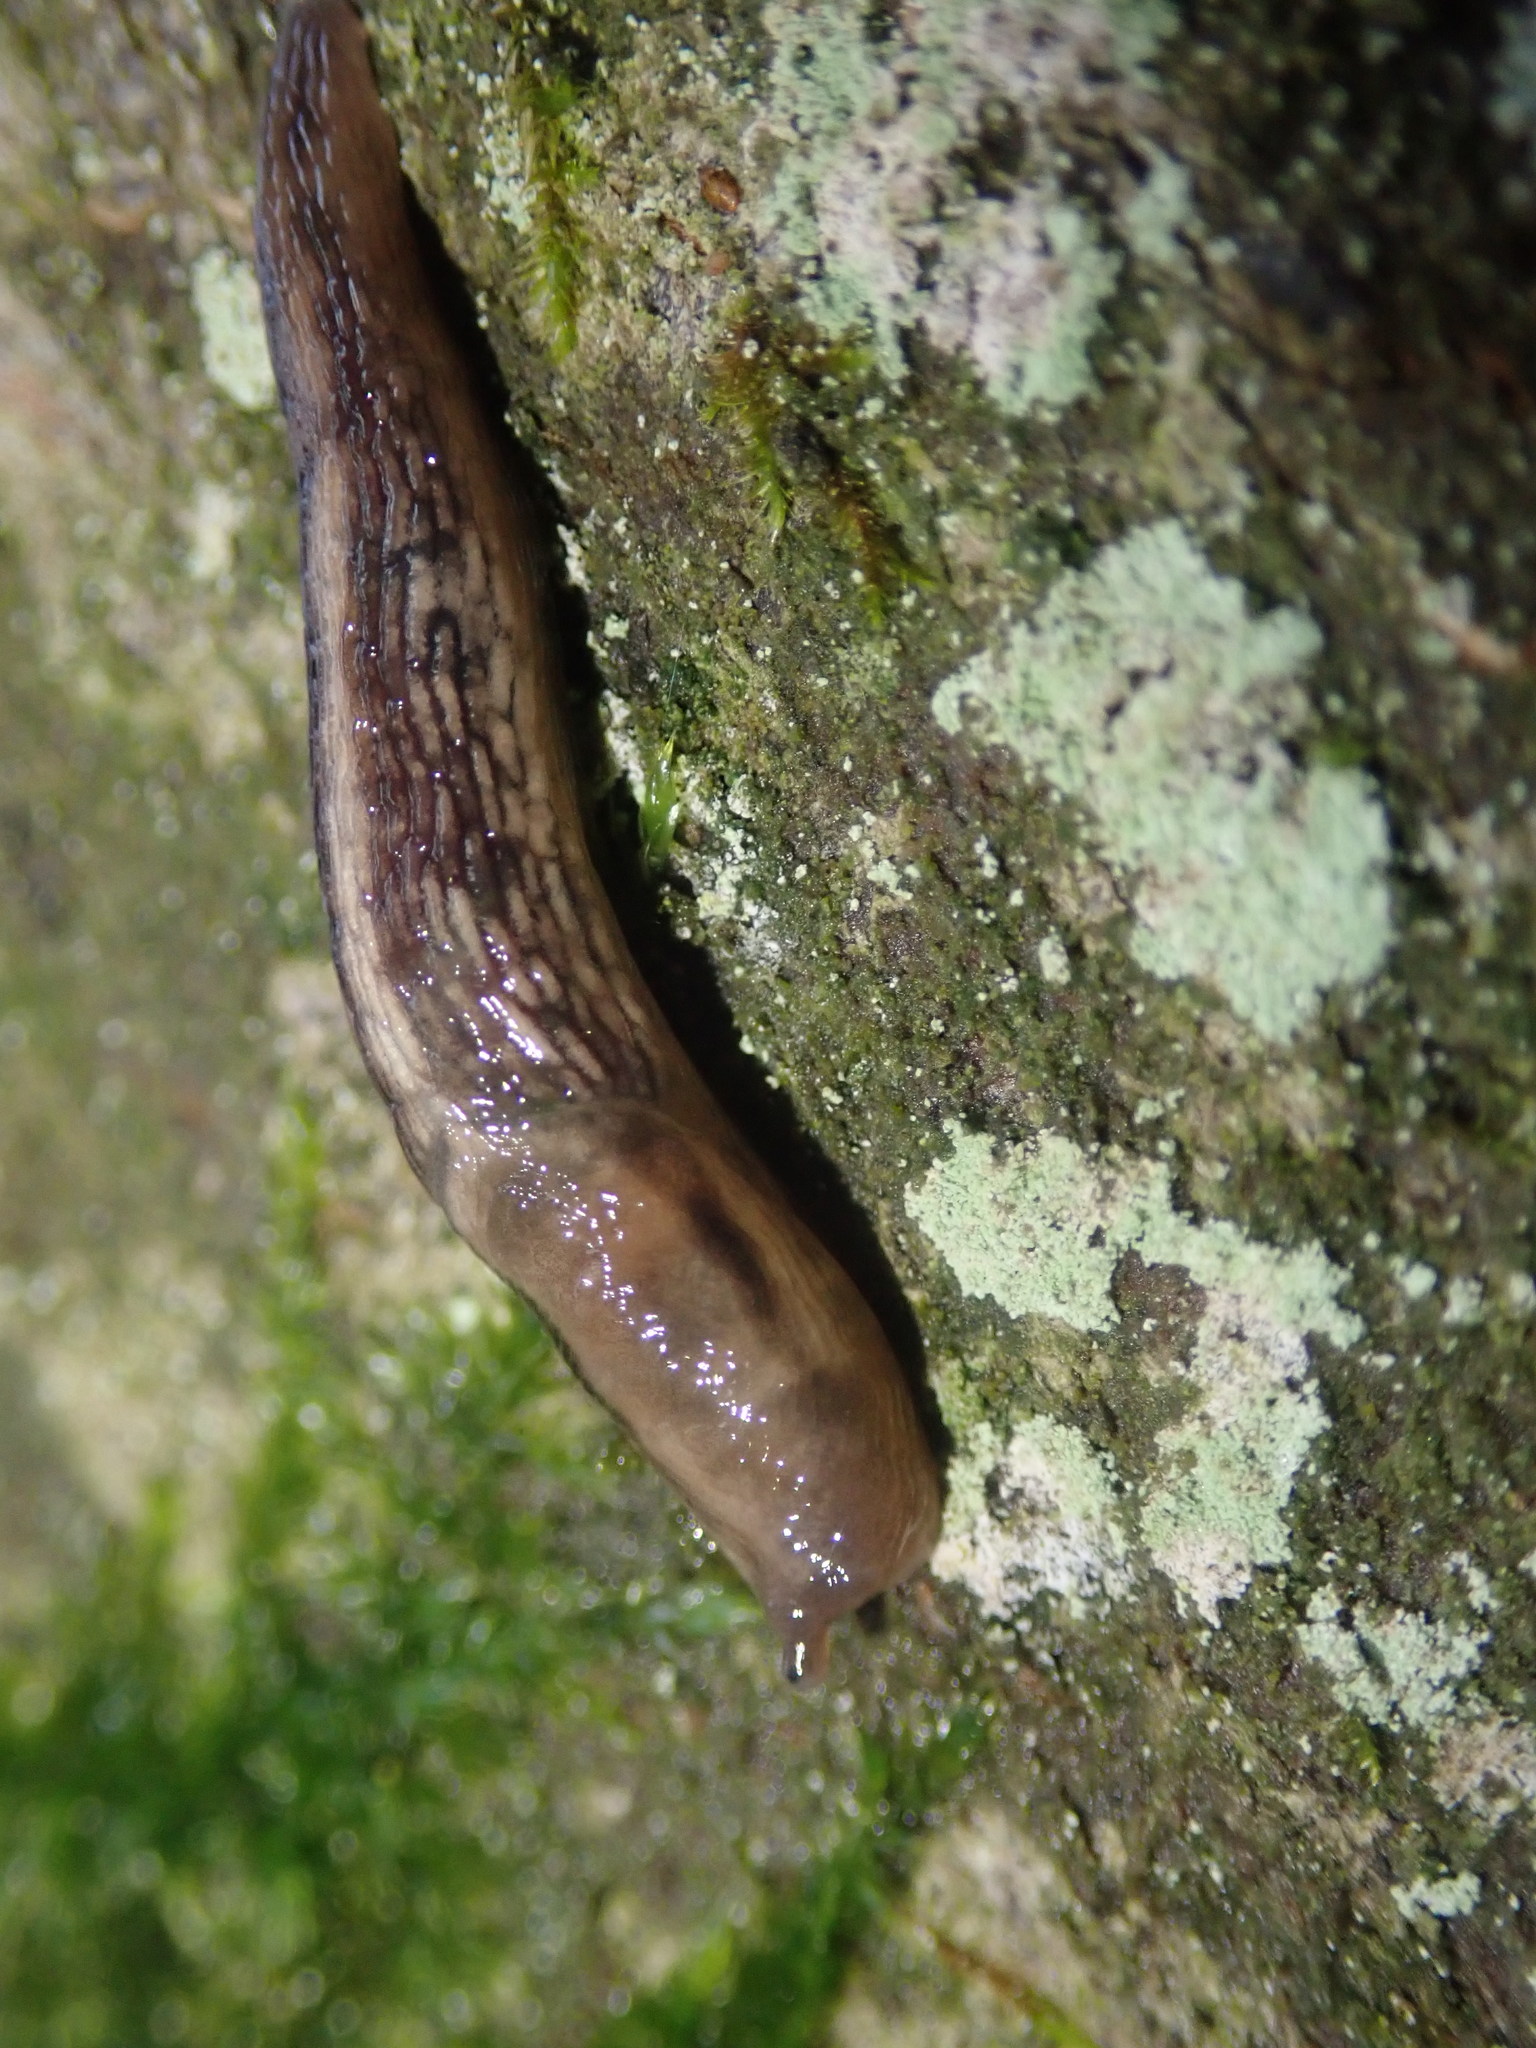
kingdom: Animalia
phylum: Mollusca
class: Gastropoda
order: Stylommatophora
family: Limacidae
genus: Lehmannia
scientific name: Lehmannia marginata
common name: Tree slug
